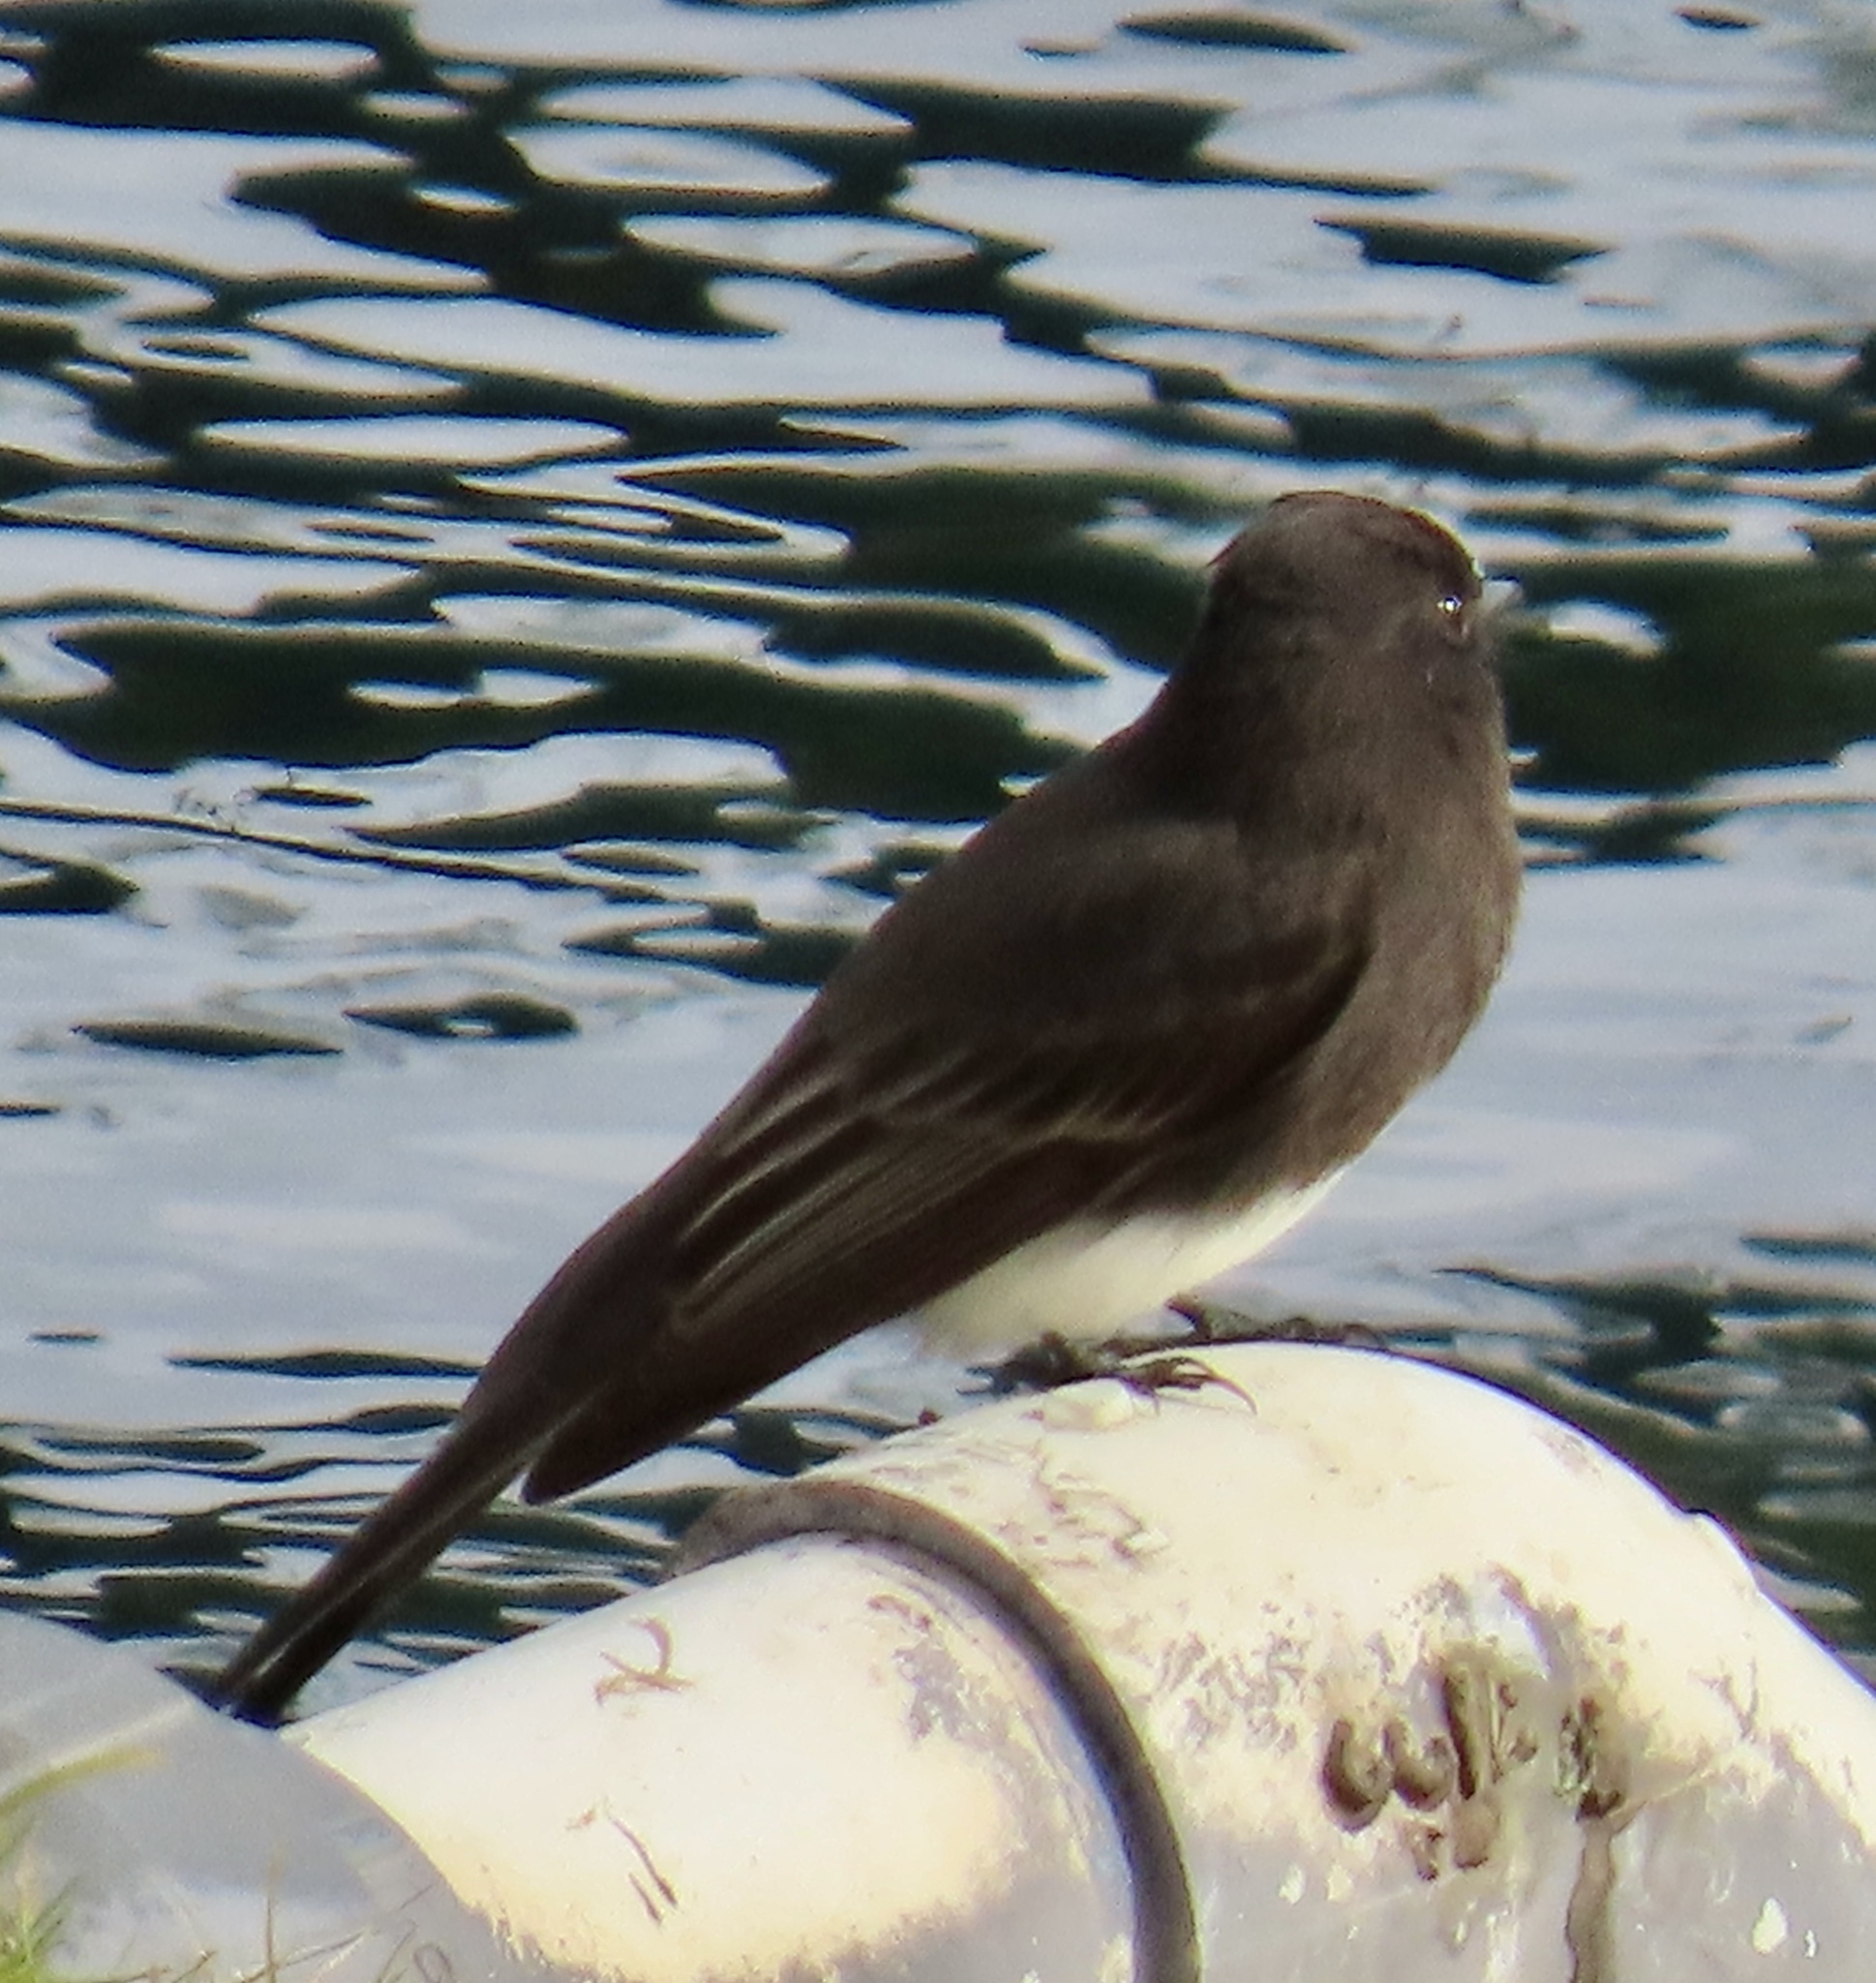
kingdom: Animalia
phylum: Chordata
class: Aves
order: Passeriformes
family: Tyrannidae
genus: Sayornis
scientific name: Sayornis nigricans
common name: Black phoebe
